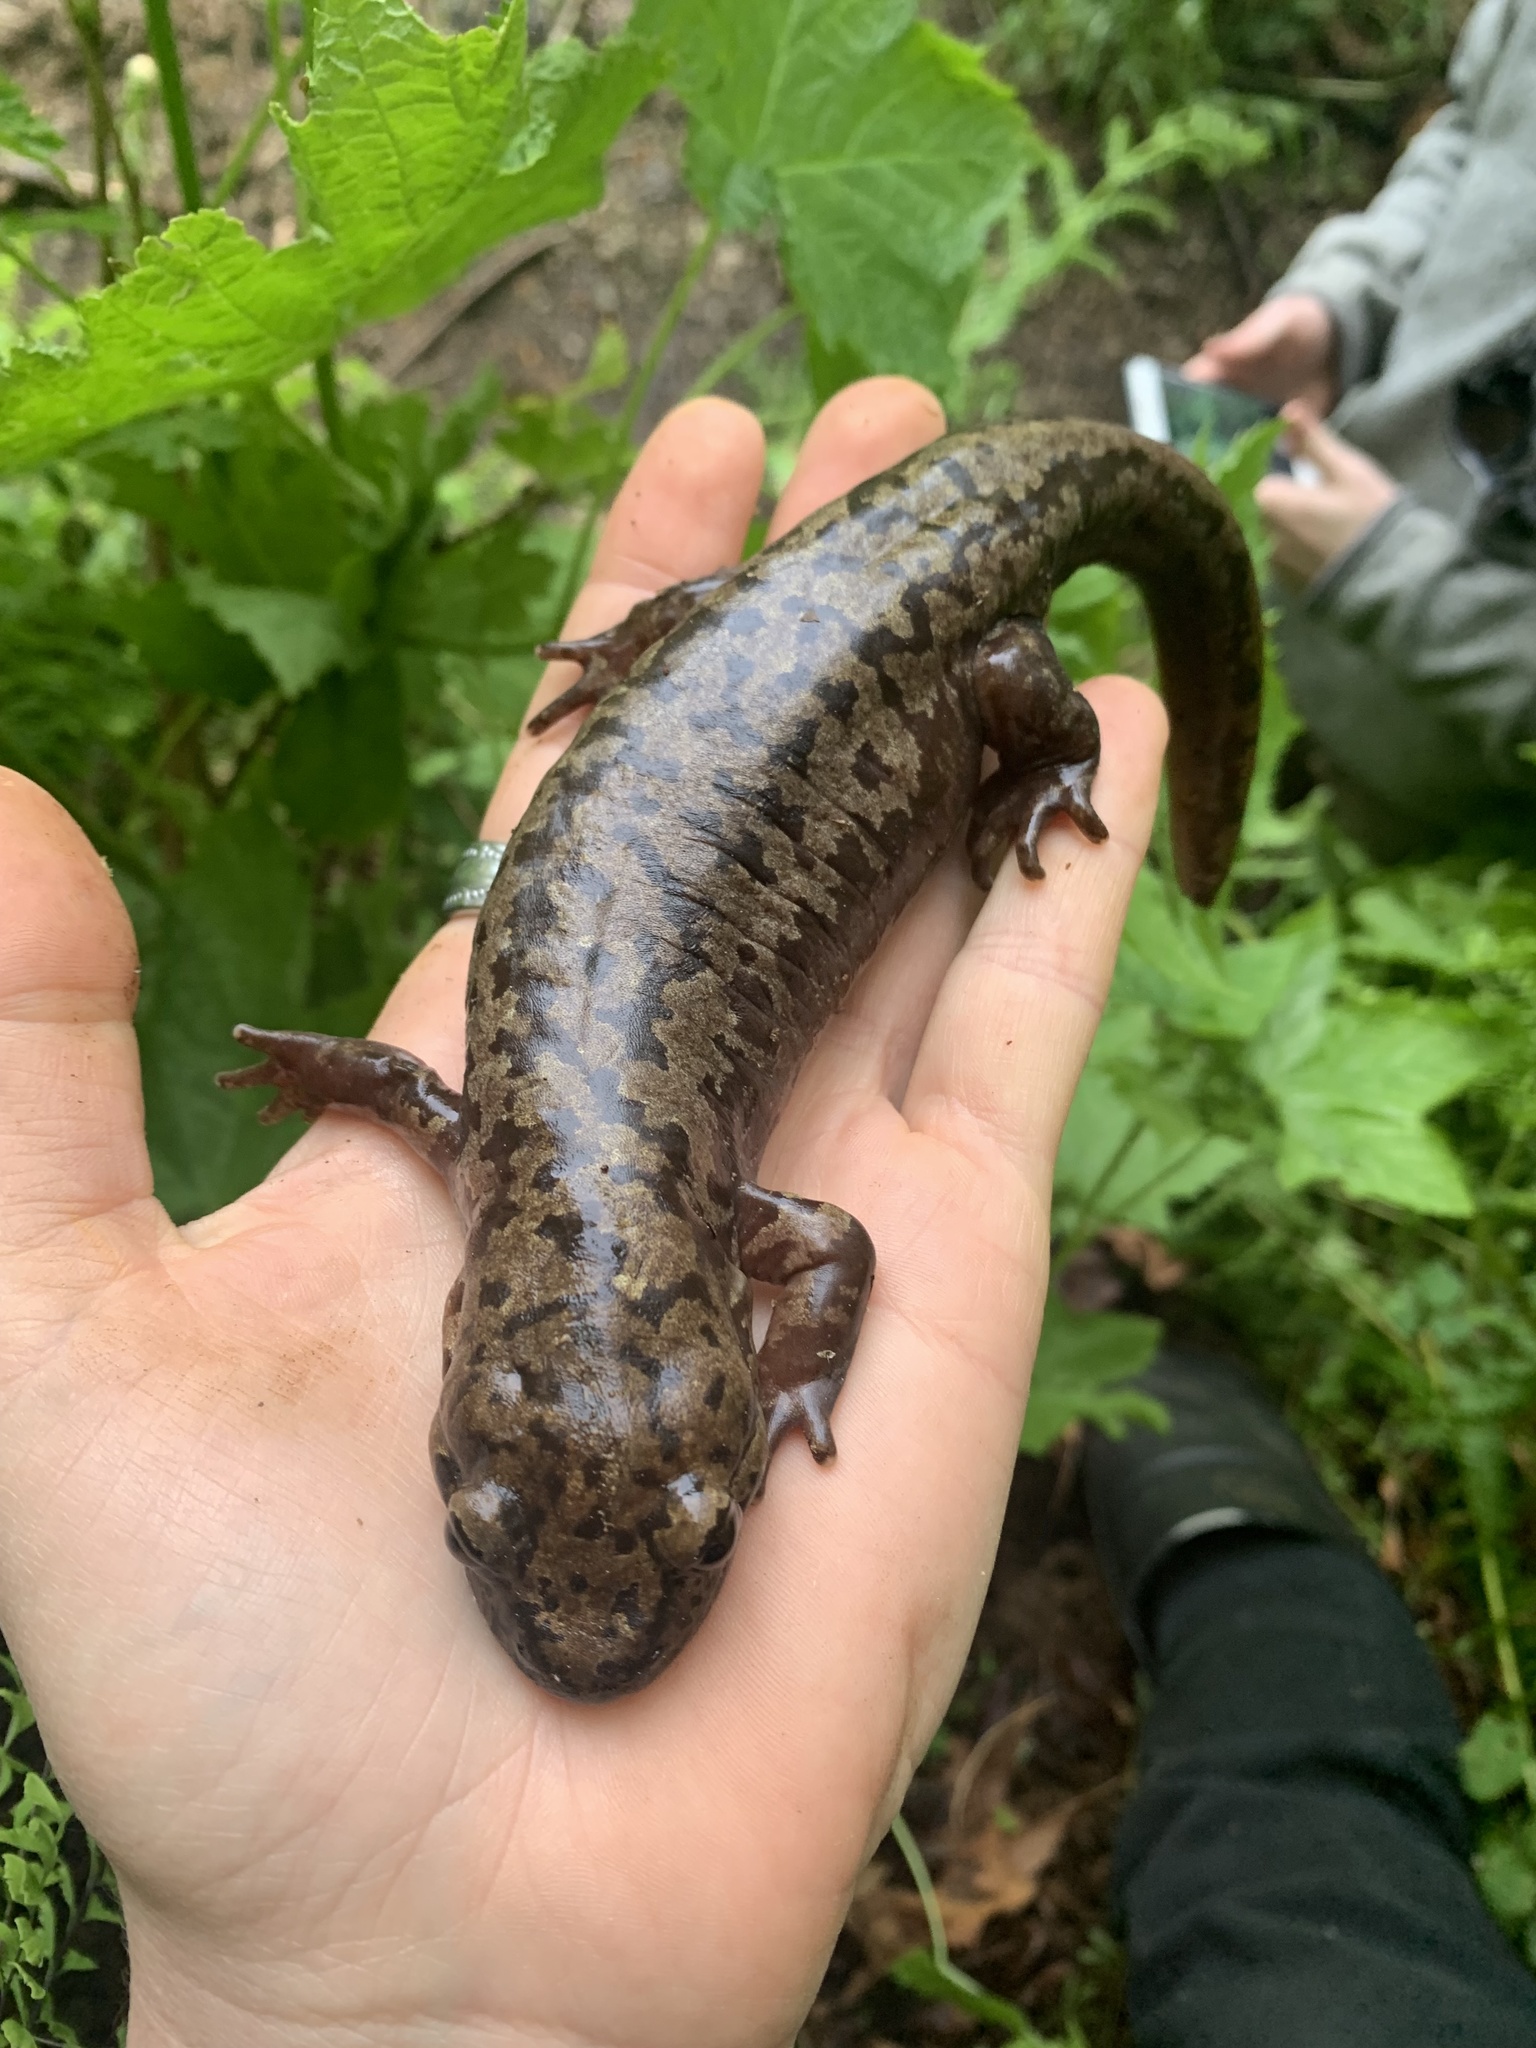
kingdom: Animalia
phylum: Chordata
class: Amphibia
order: Caudata
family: Ambystomatidae
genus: Dicamptodon
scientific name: Dicamptodon tenebrosus
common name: Coastal giant salamander
